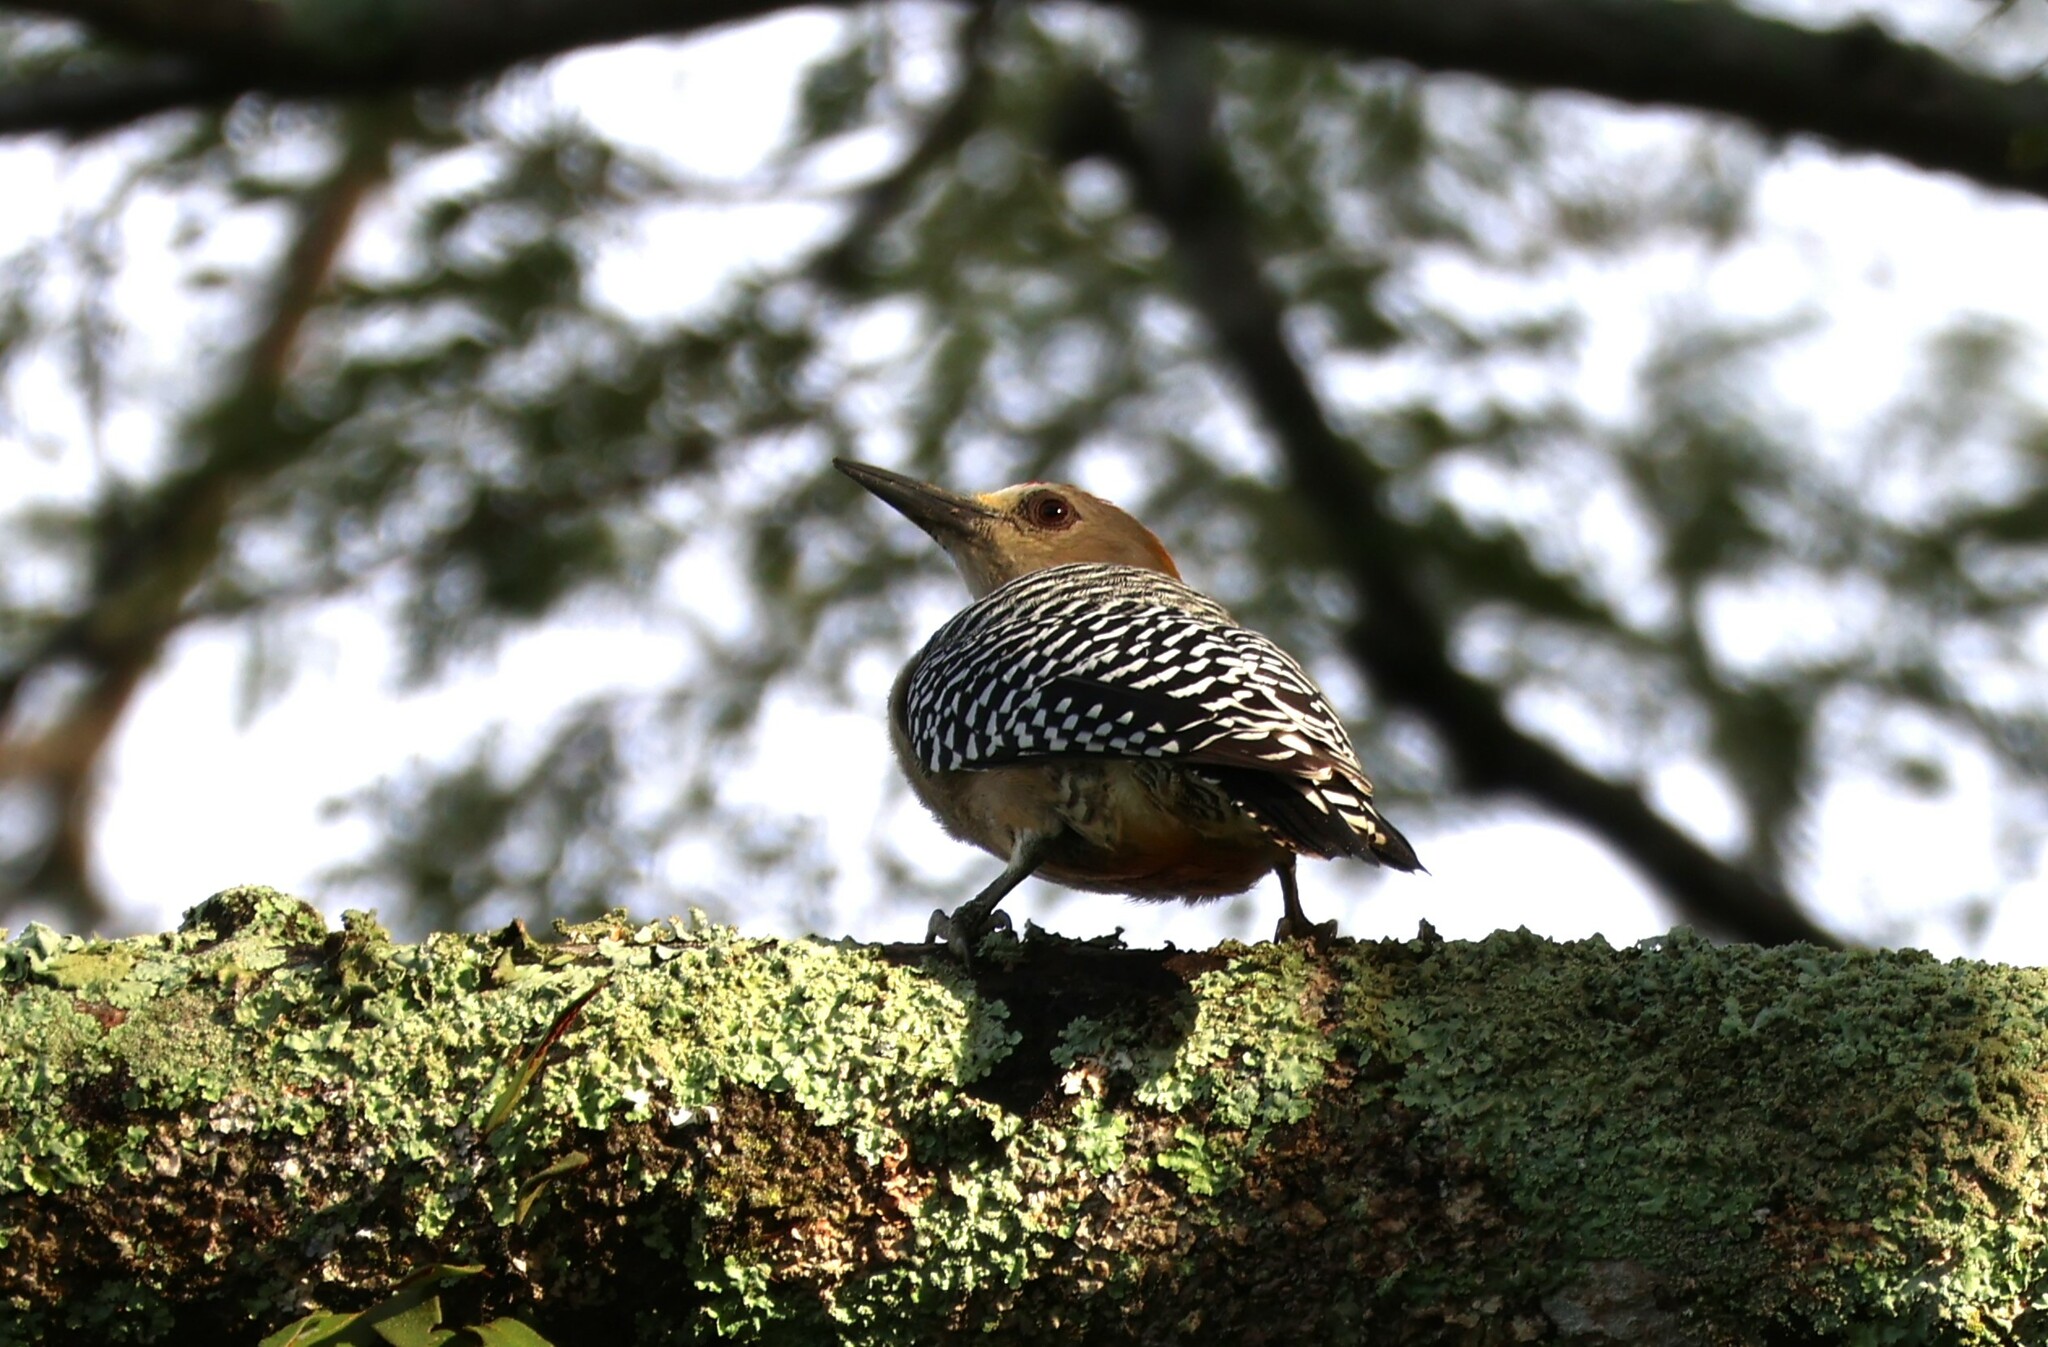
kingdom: Animalia
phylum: Chordata
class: Aves
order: Piciformes
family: Picidae
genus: Melanerpes
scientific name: Melanerpes hoffmannii
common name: Hoffmann's woodpecker
